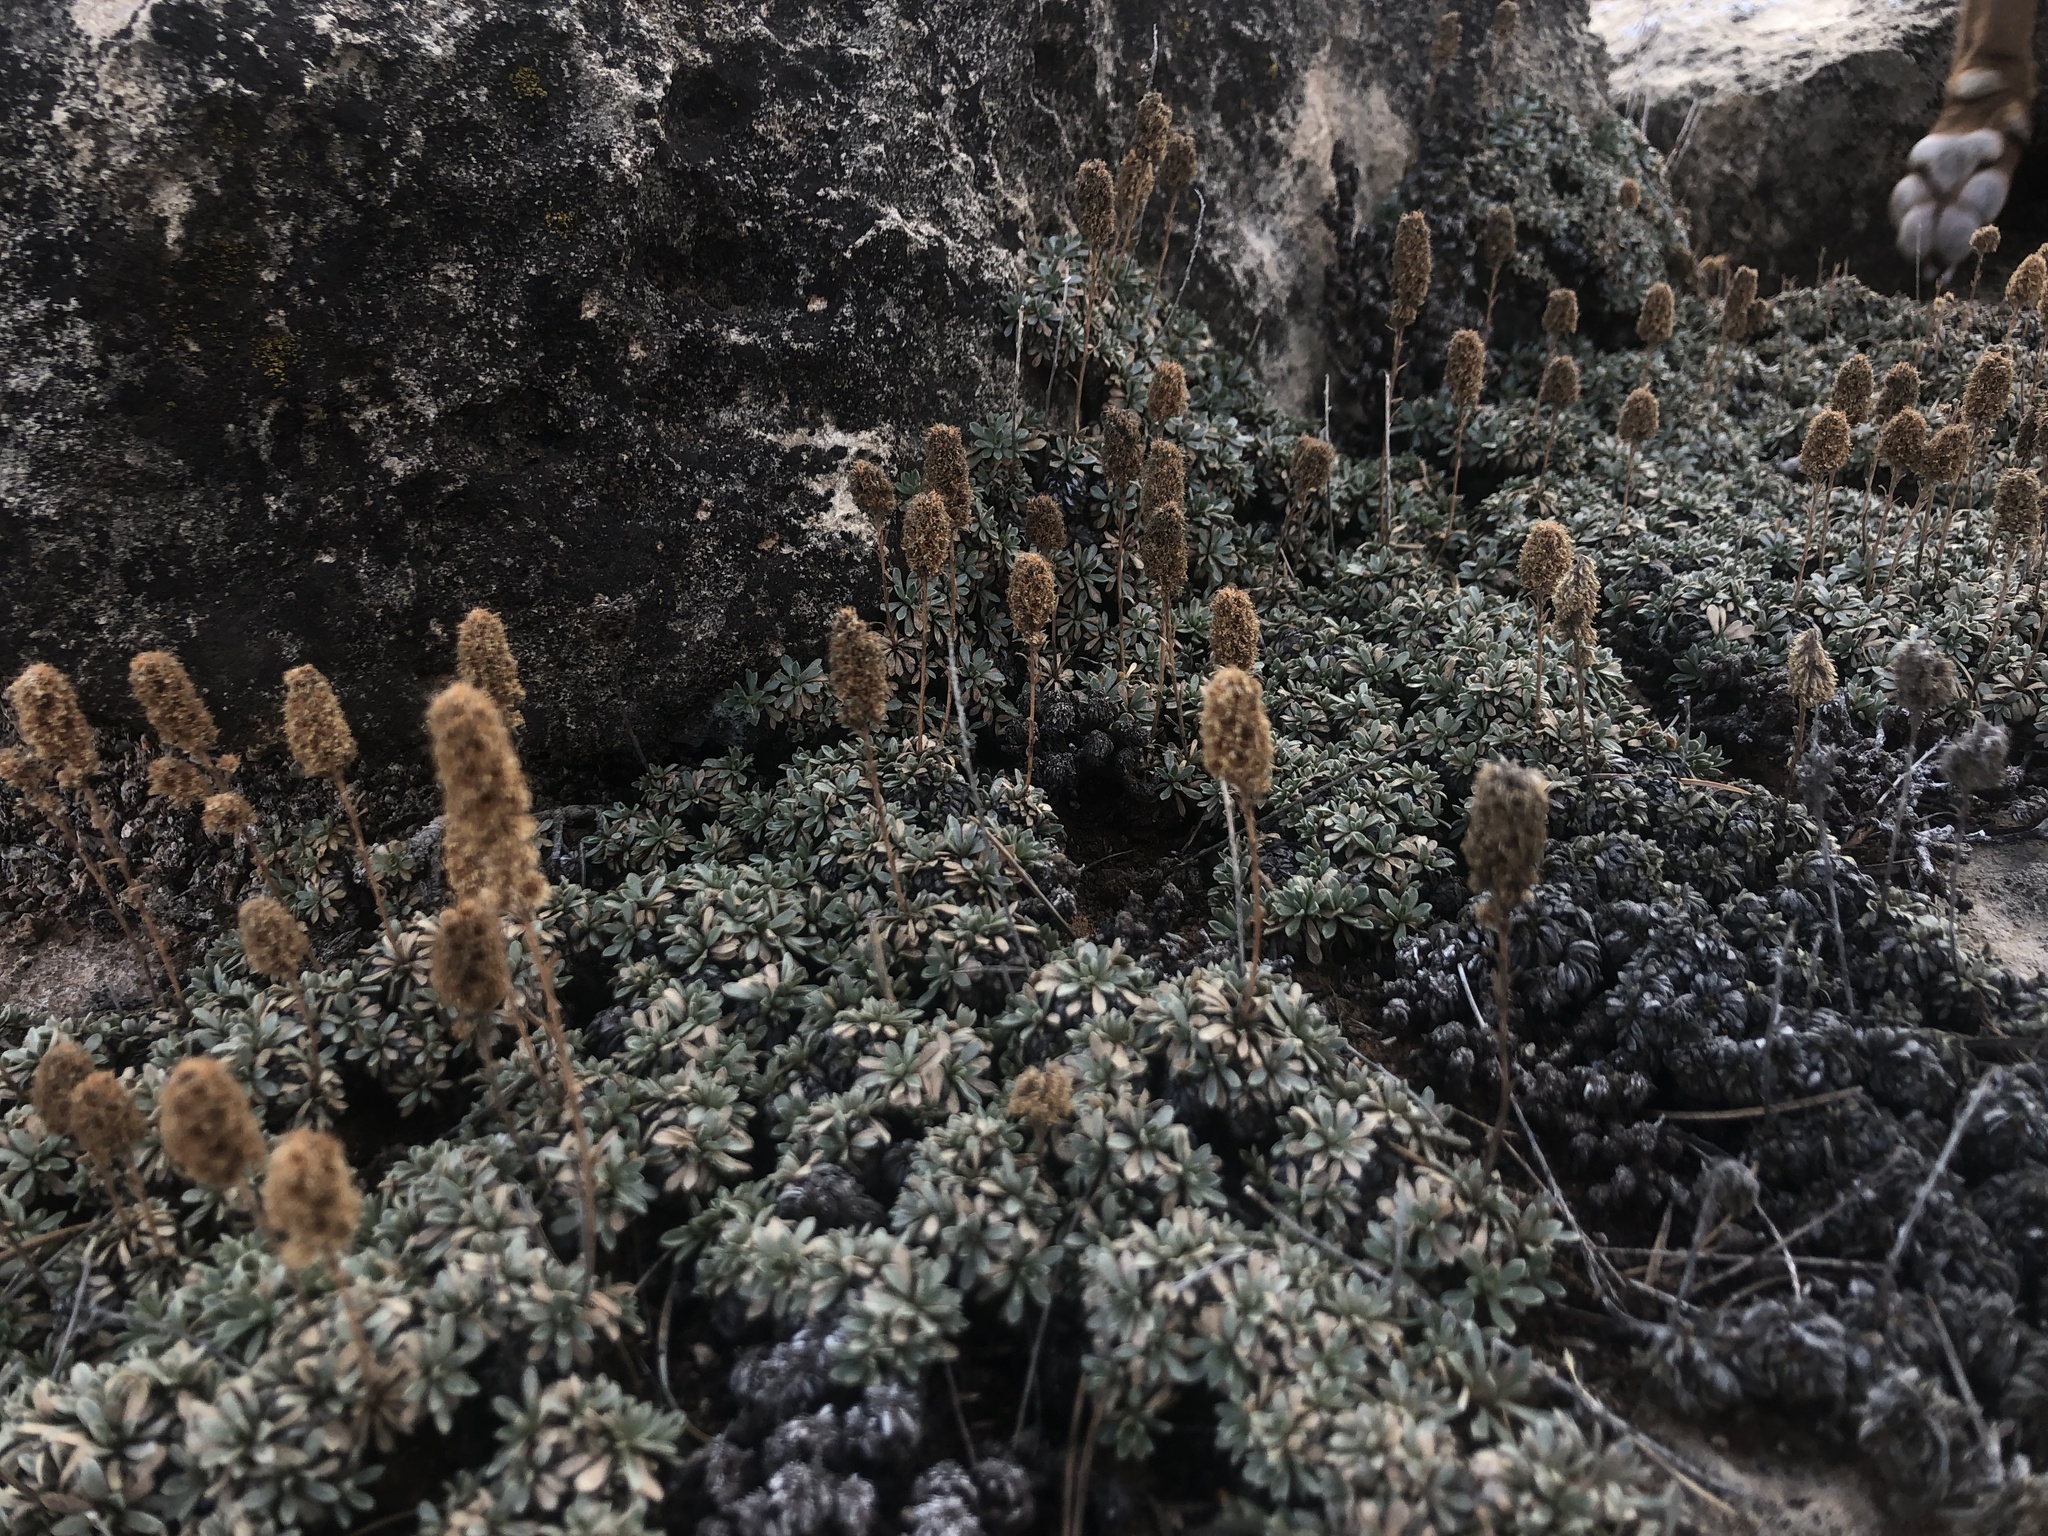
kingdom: Plantae
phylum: Tracheophyta
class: Magnoliopsida
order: Rosales
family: Rosaceae
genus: Petrophytum
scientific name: Petrophytum caespitosum
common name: Mat rockspirea
